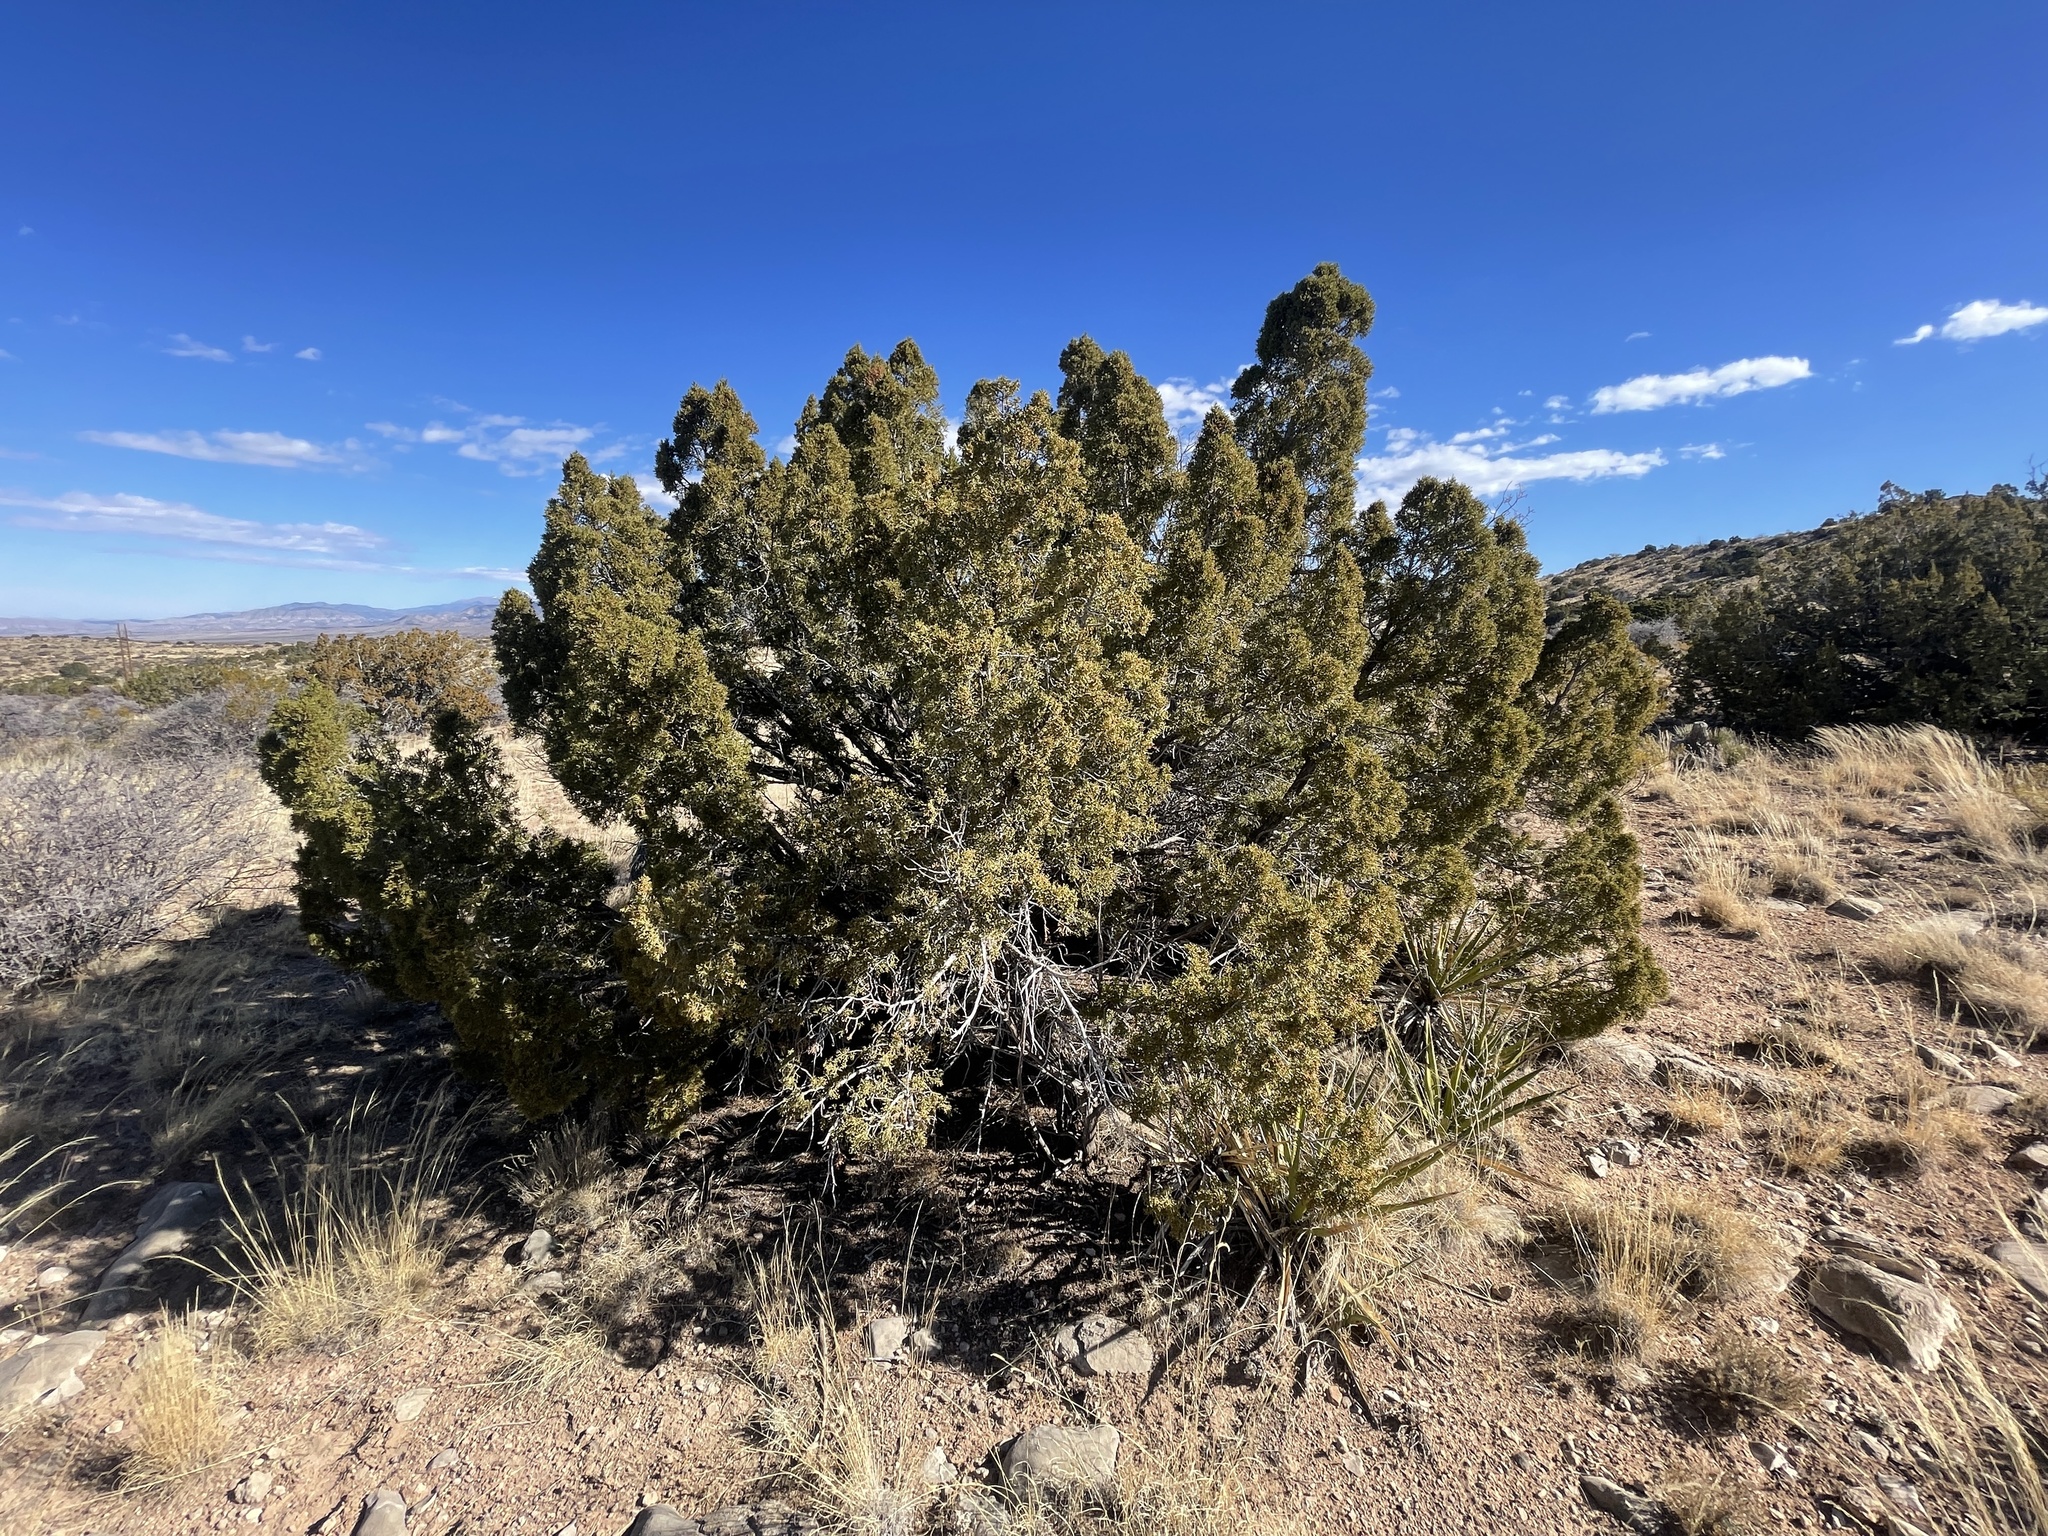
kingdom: Plantae
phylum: Tracheophyta
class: Pinopsida
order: Pinales
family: Cupressaceae
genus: Juniperus
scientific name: Juniperus monosperma
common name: One-seed juniper
